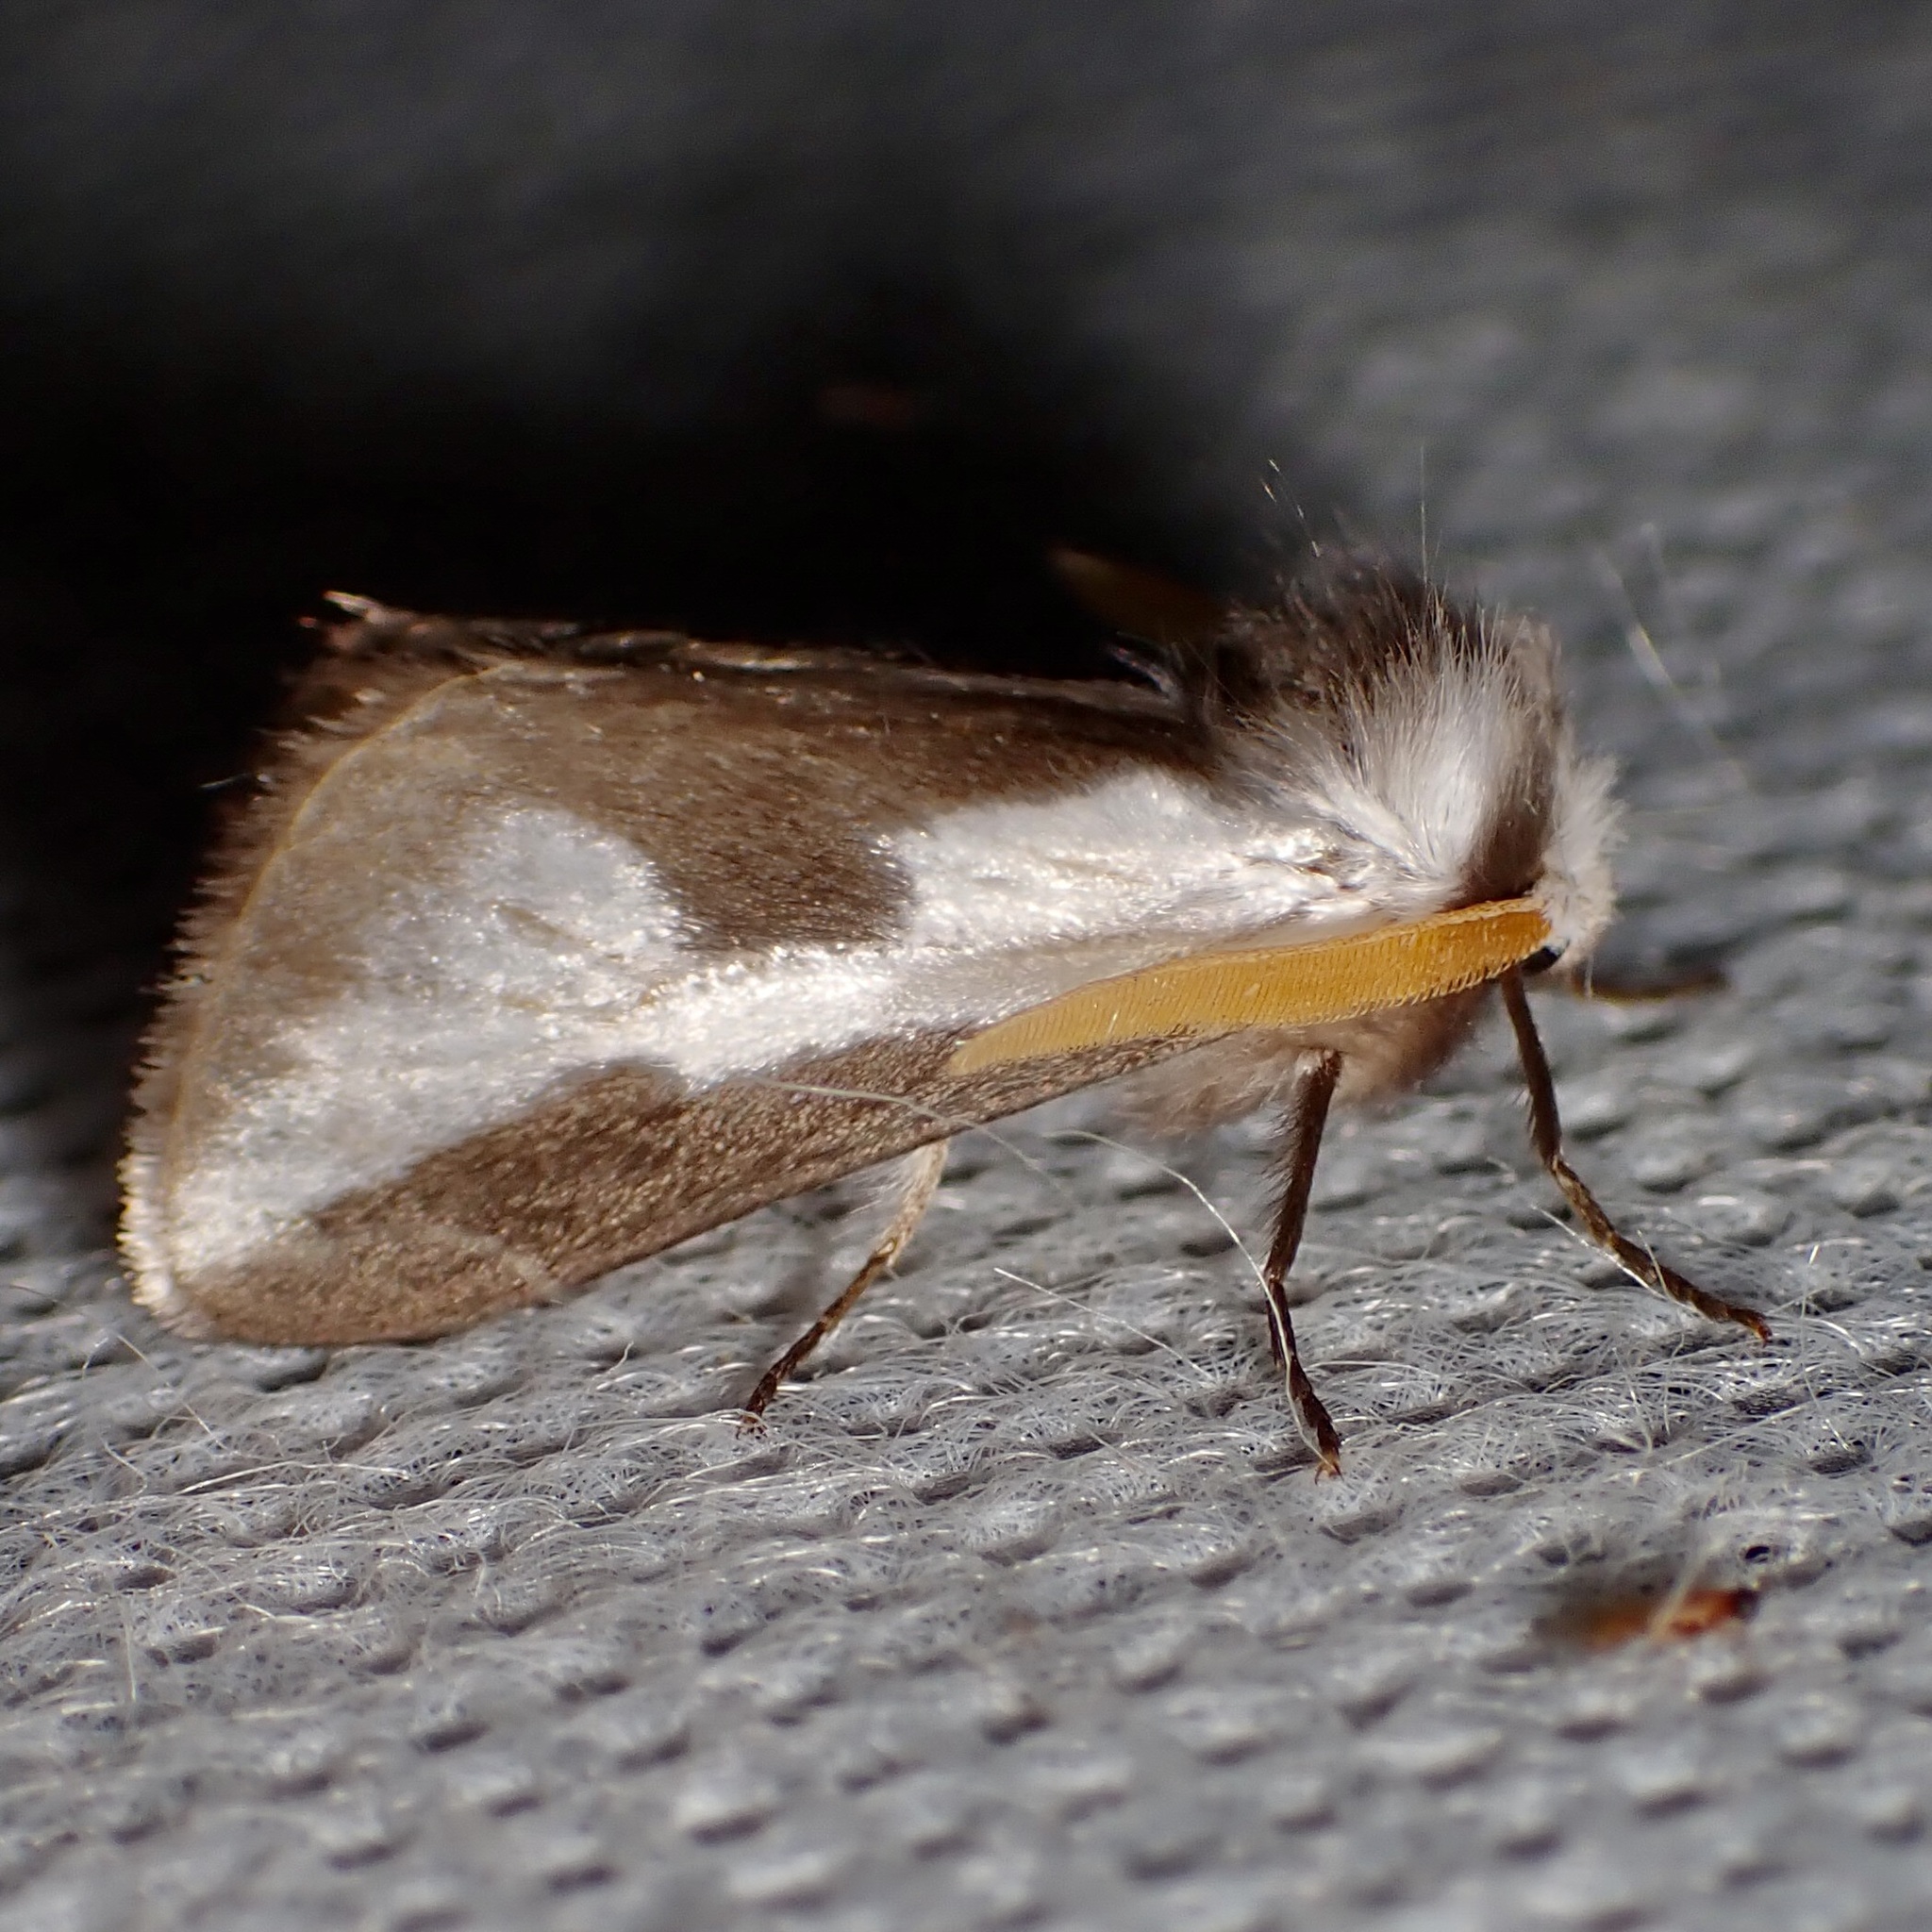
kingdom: Animalia
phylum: Arthropoda
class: Insecta
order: Lepidoptera
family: Megalopygidae
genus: Norape
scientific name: Norape tener
